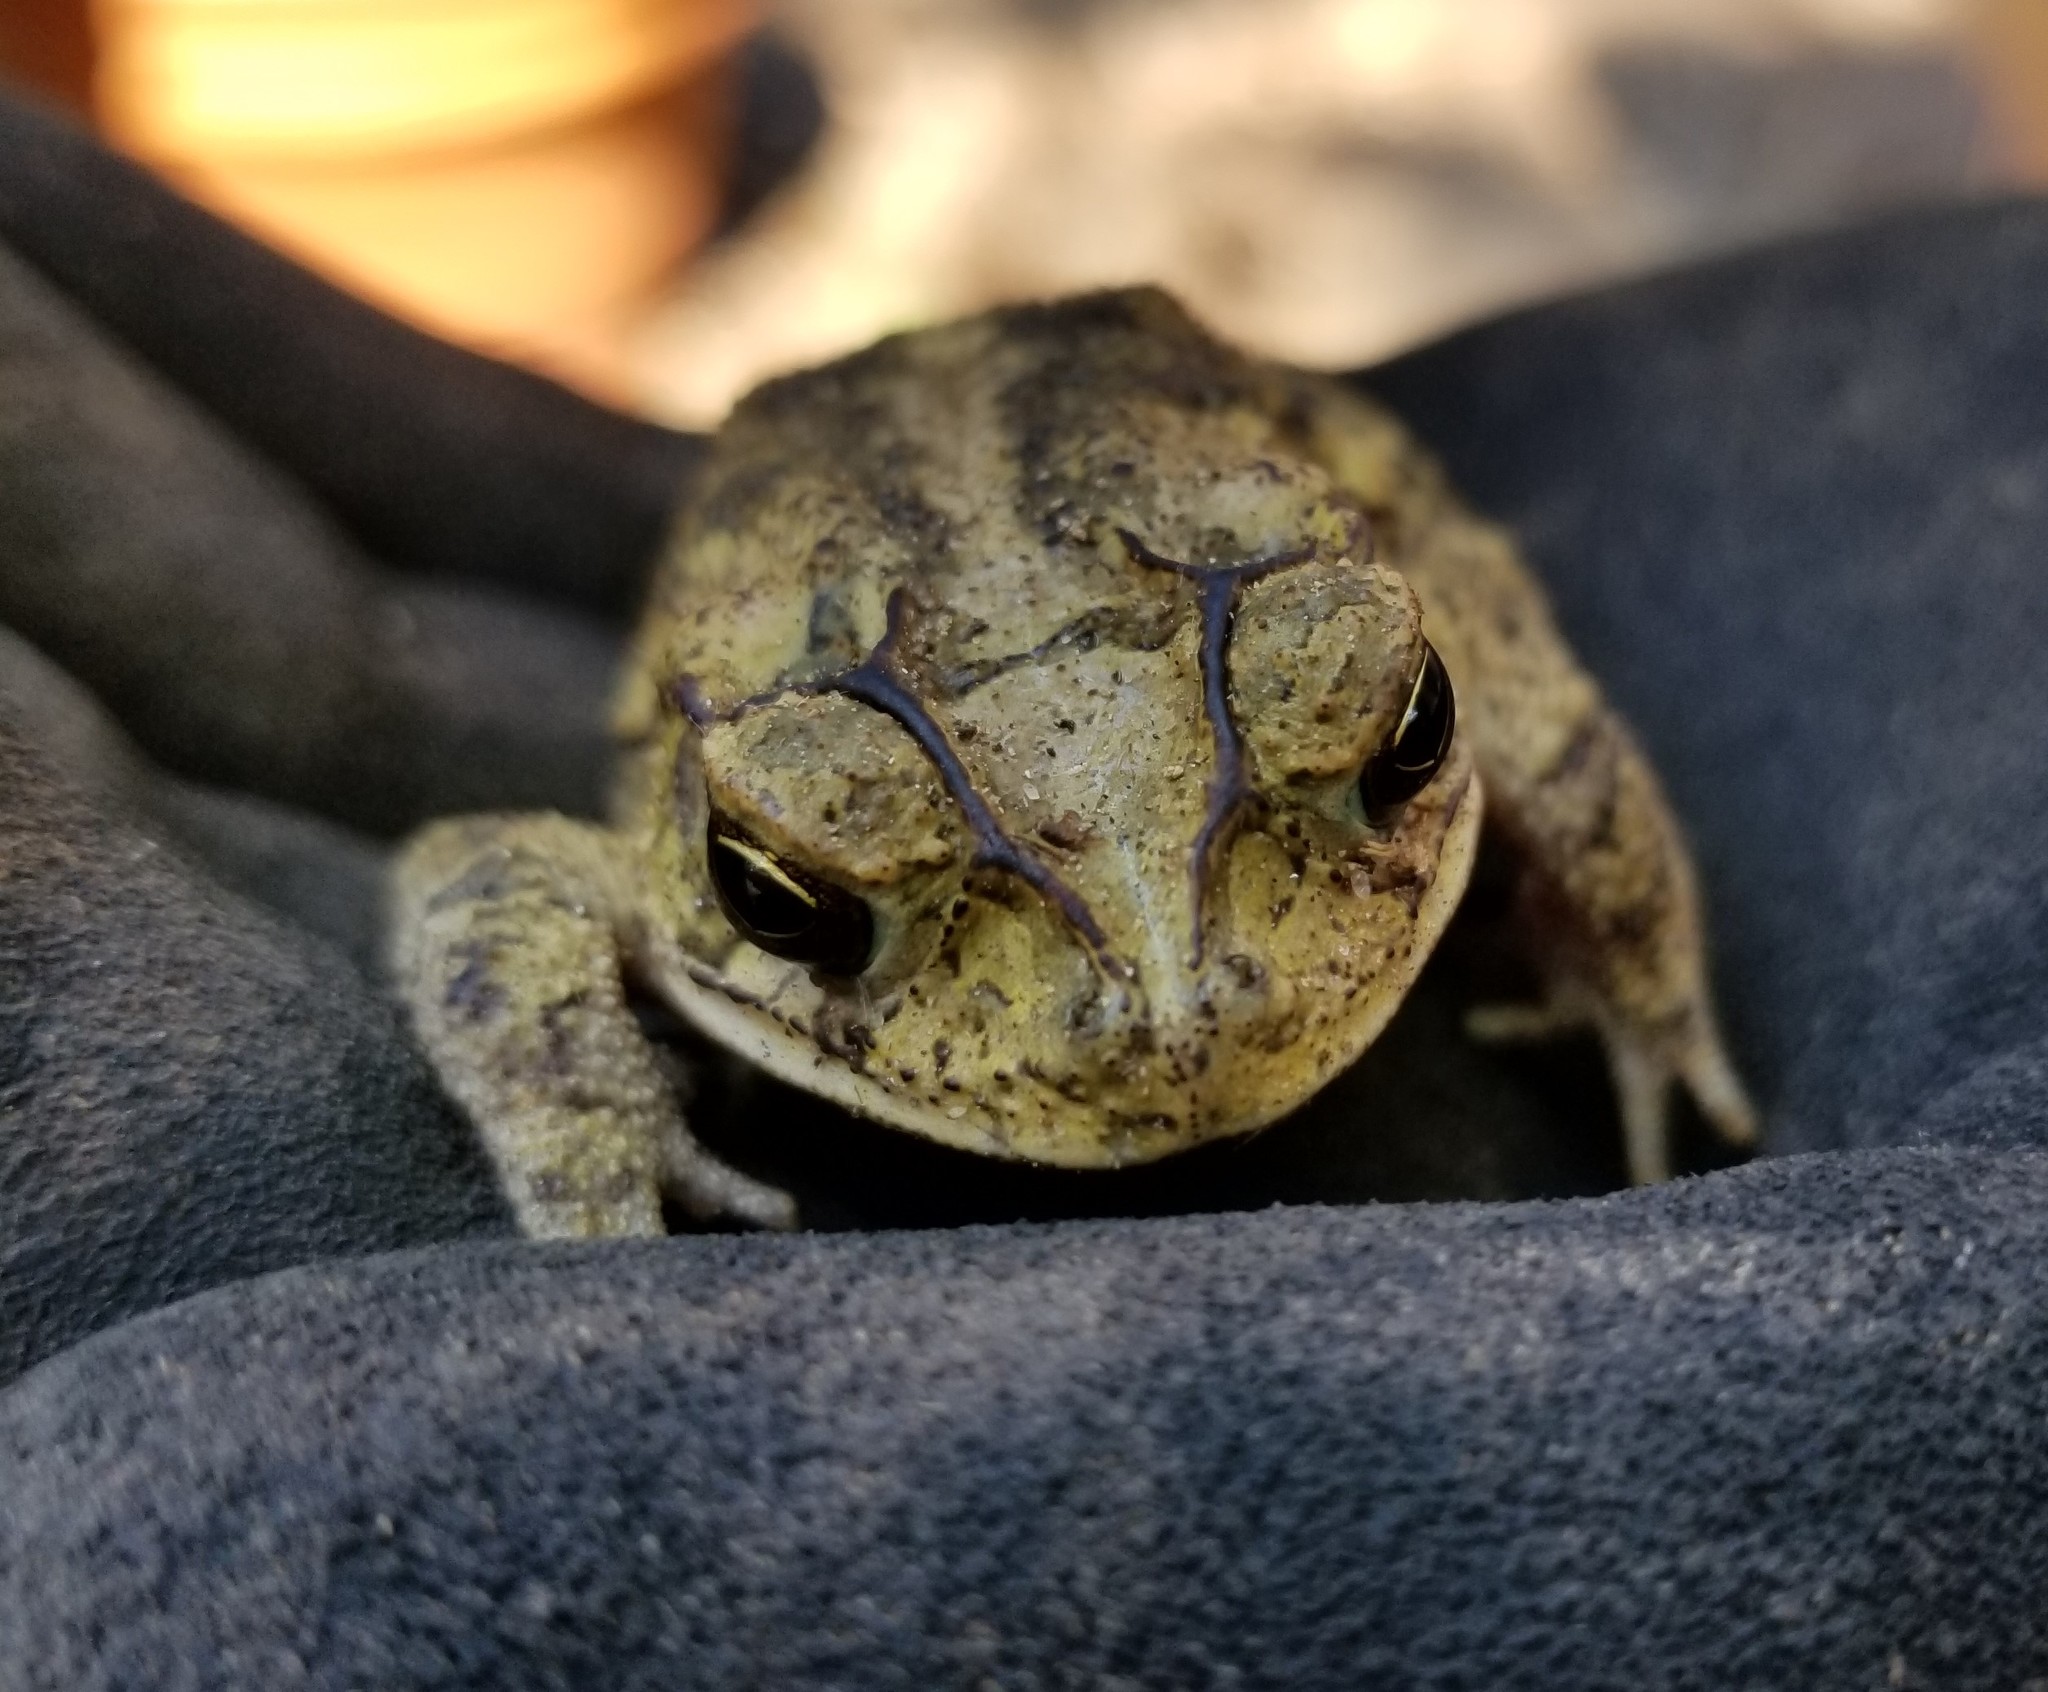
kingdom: Animalia
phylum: Chordata
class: Amphibia
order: Anura
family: Bufonidae
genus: Incilius
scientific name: Incilius nebulifer
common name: Gulf coast toad
